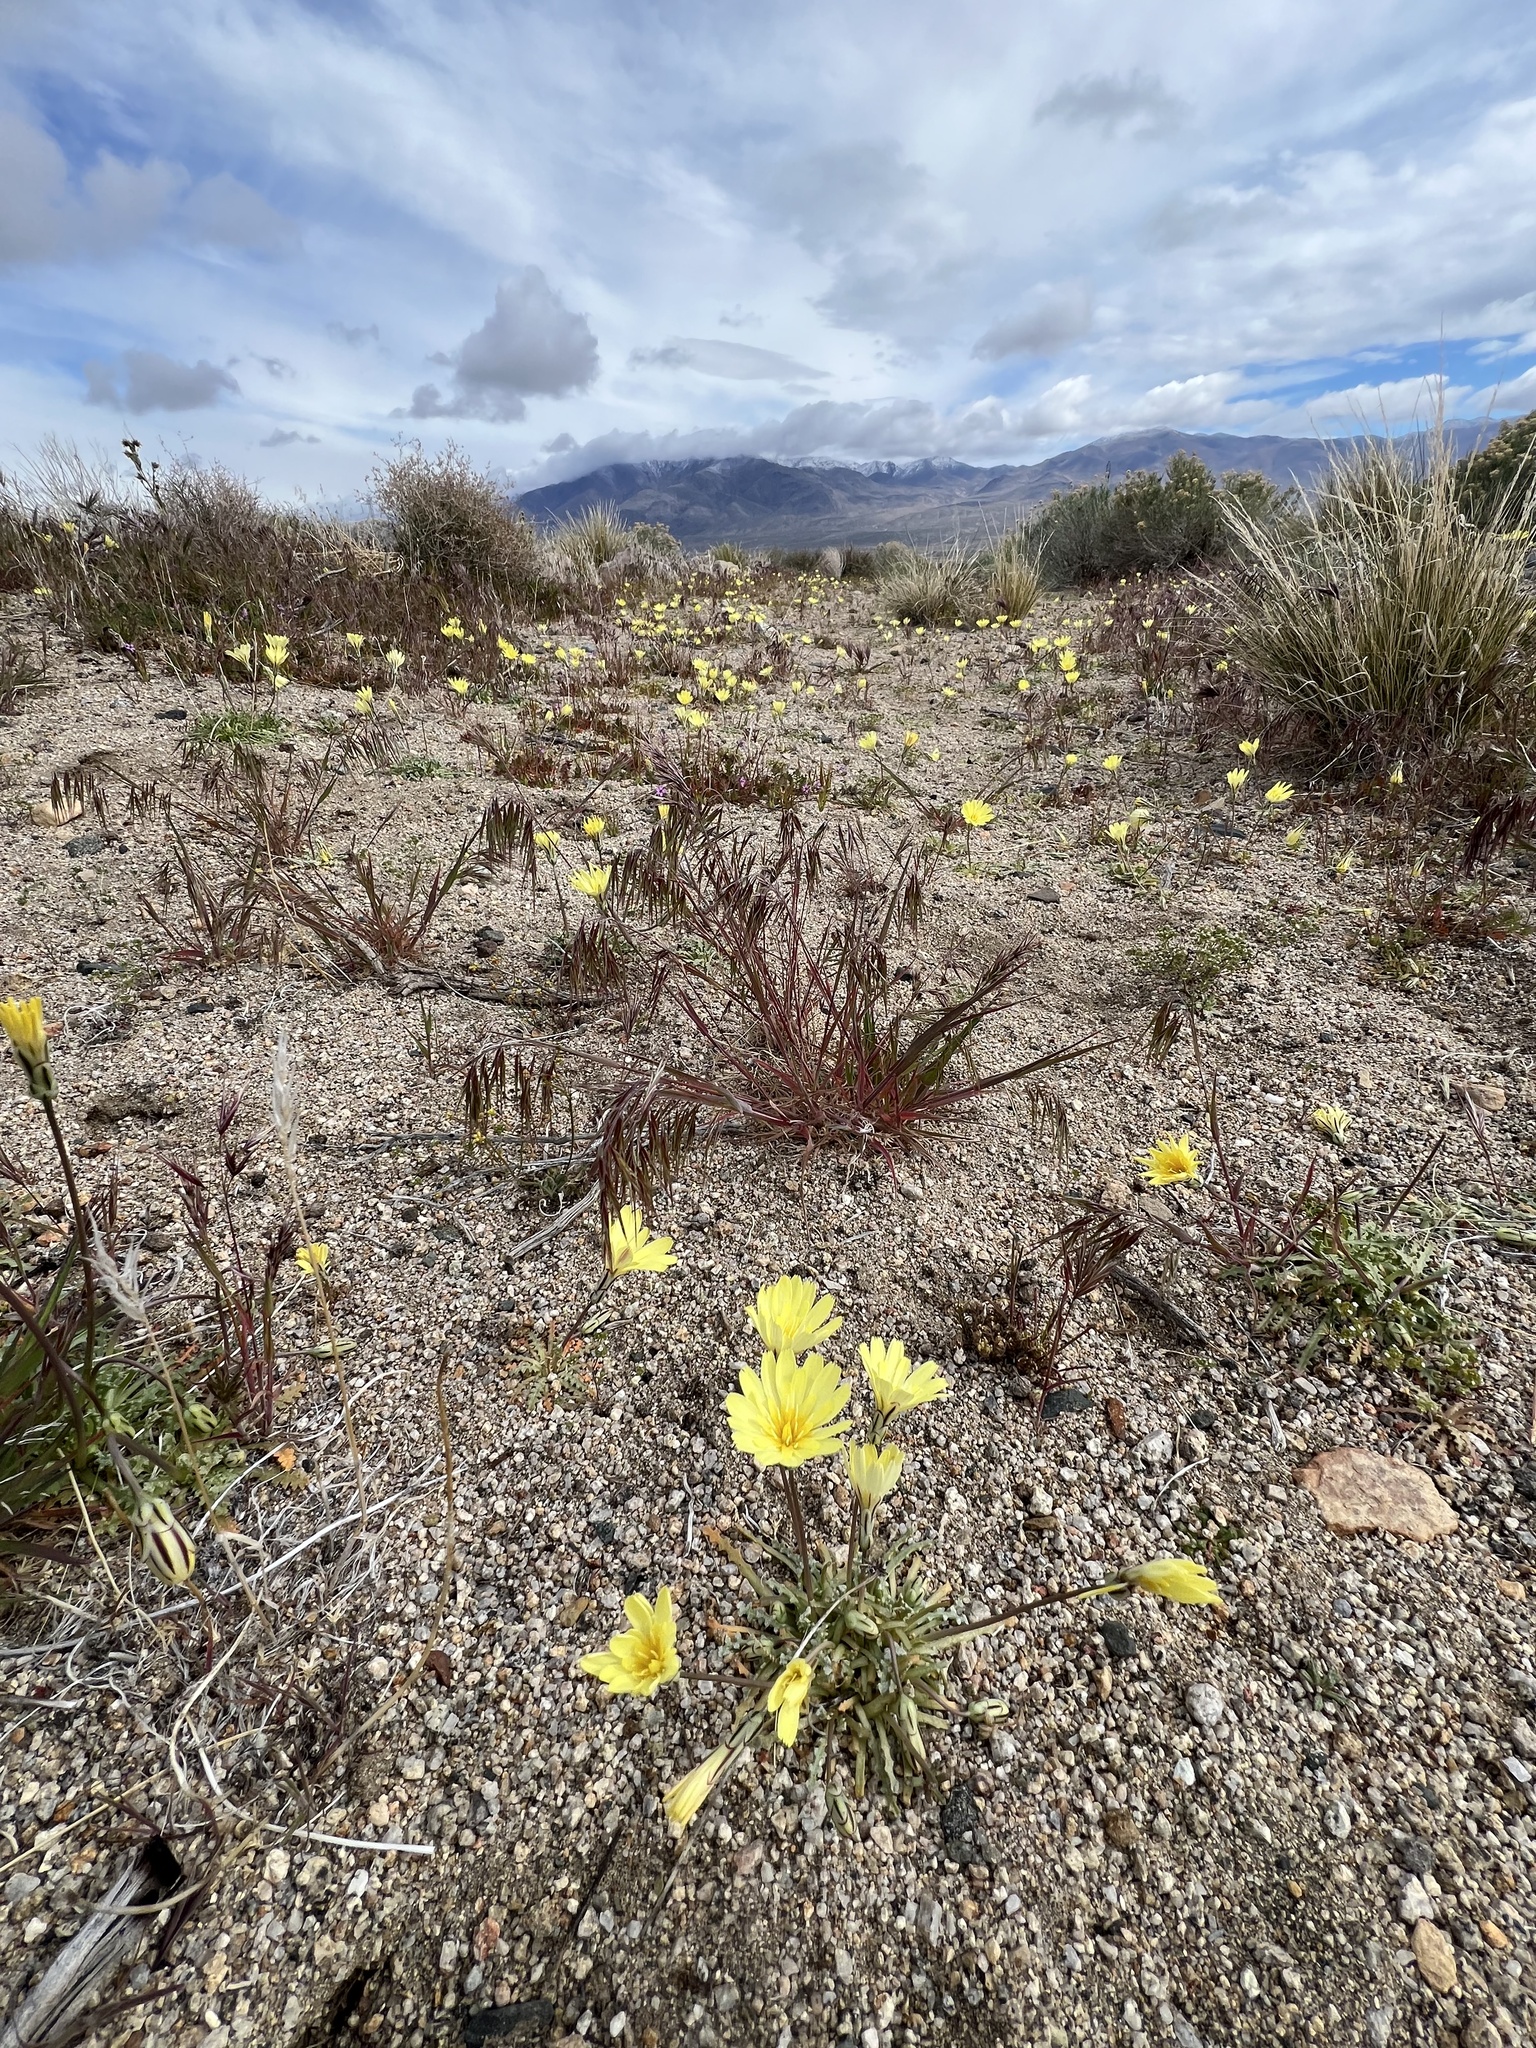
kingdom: Plantae
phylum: Tracheophyta
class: Magnoliopsida
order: Asterales
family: Asteraceae
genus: Anisocoma
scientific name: Anisocoma acaulis
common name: Scalebud
